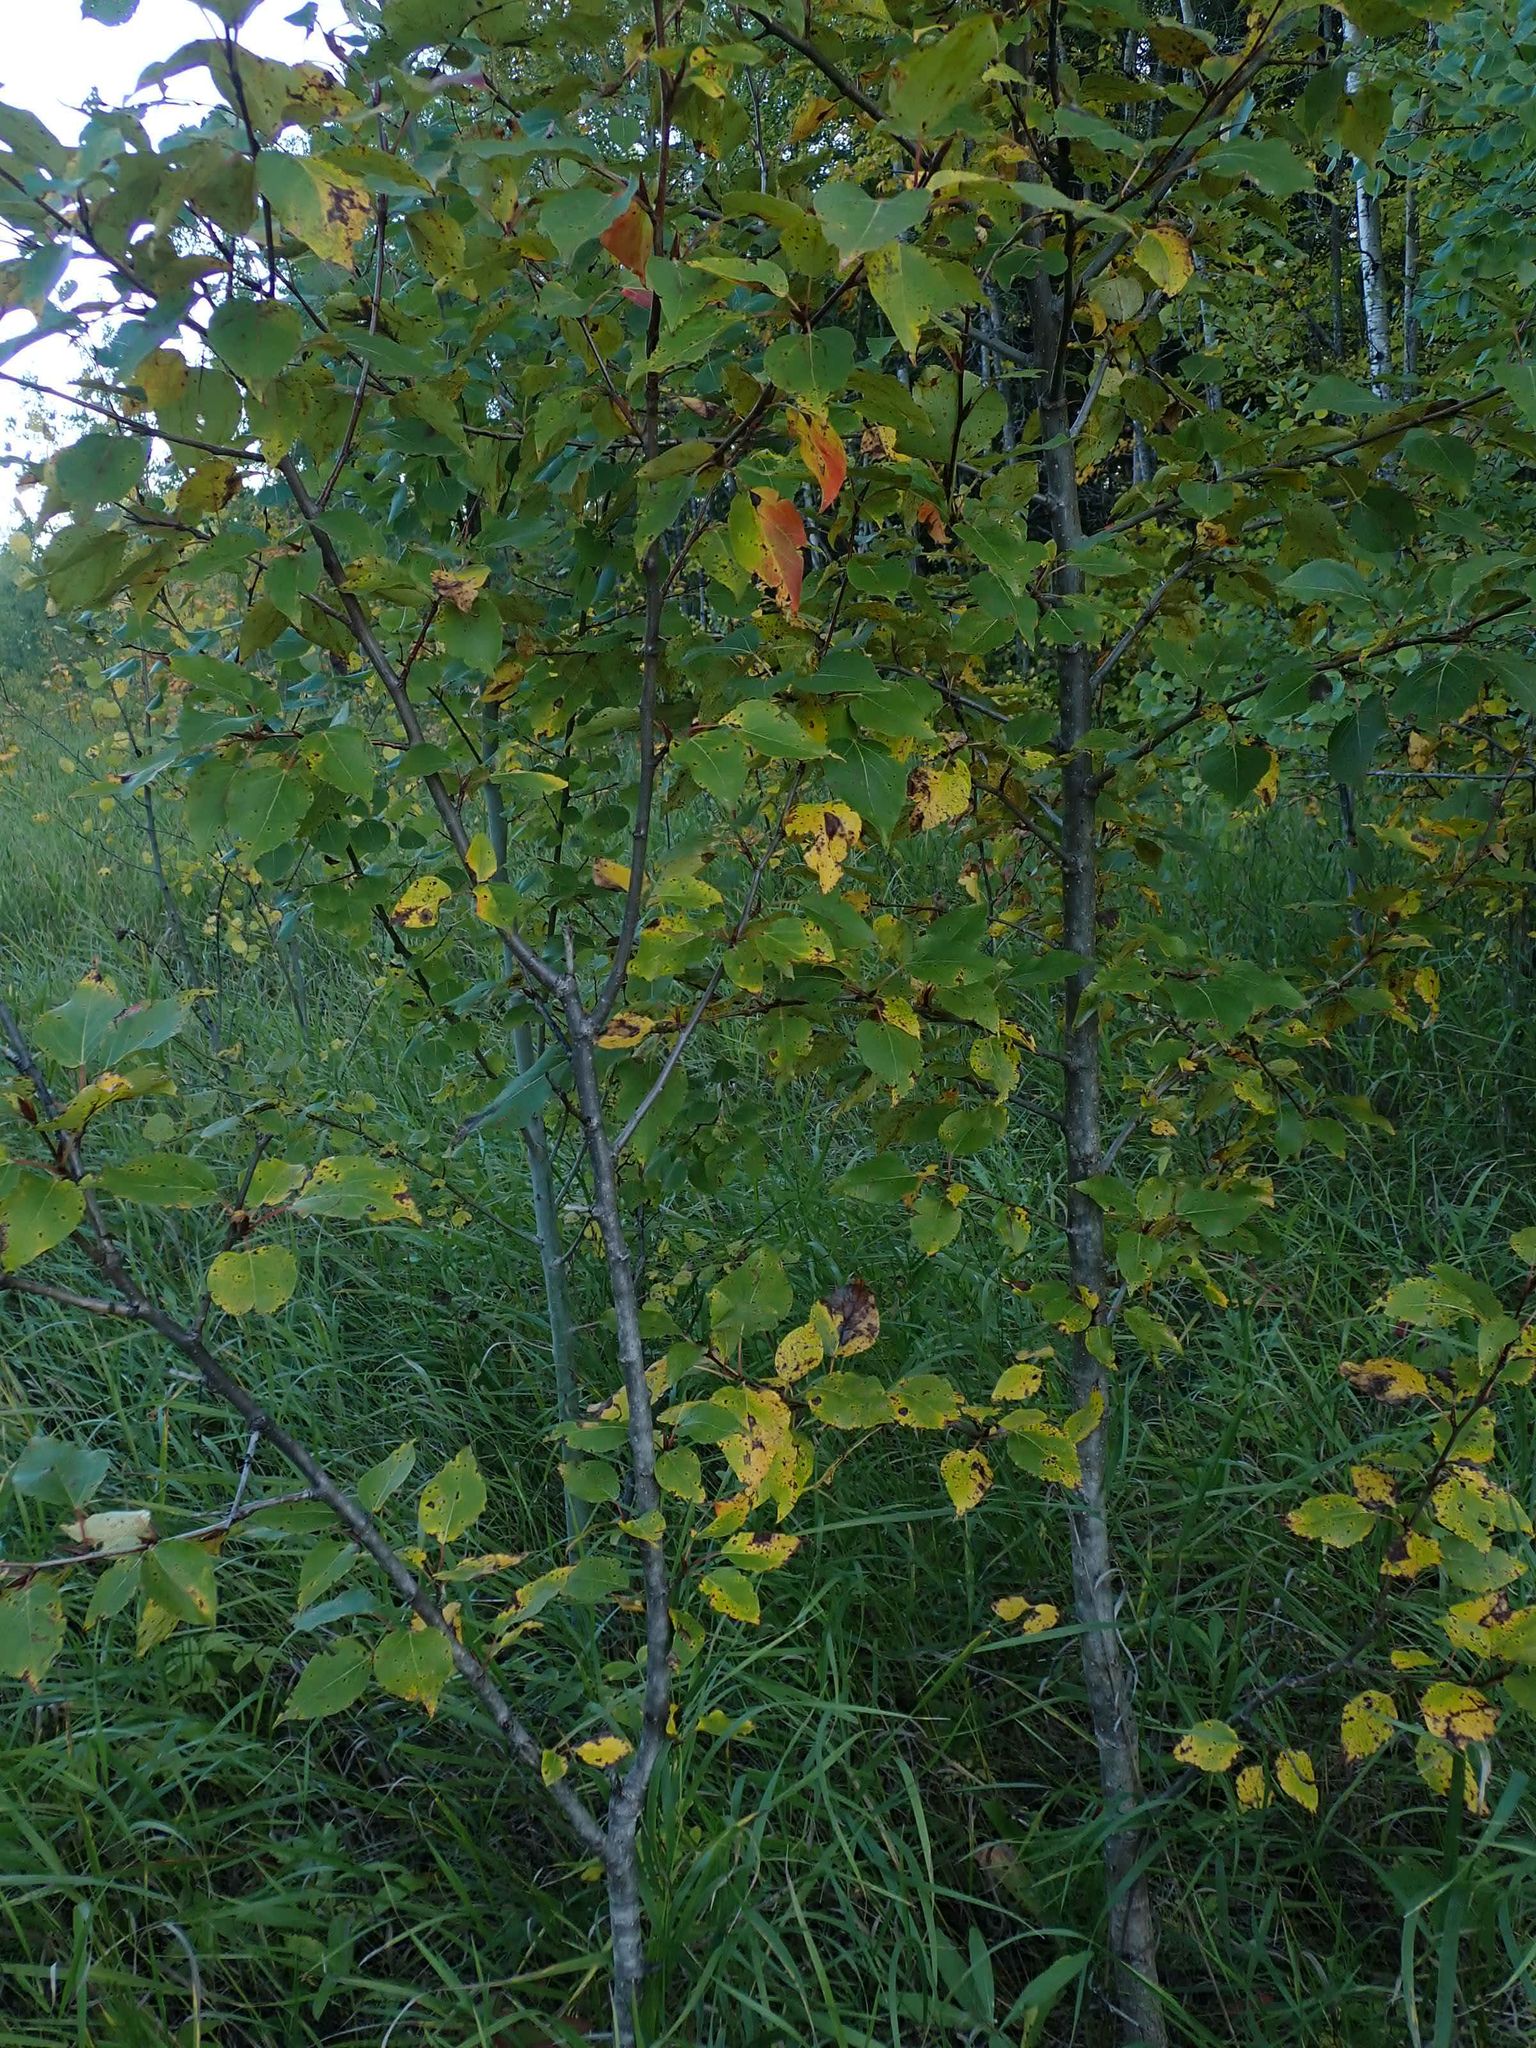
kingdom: Plantae
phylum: Tracheophyta
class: Magnoliopsida
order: Malpighiales
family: Salicaceae
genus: Populus
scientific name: Populus balsamifera
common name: Balsam poplar
